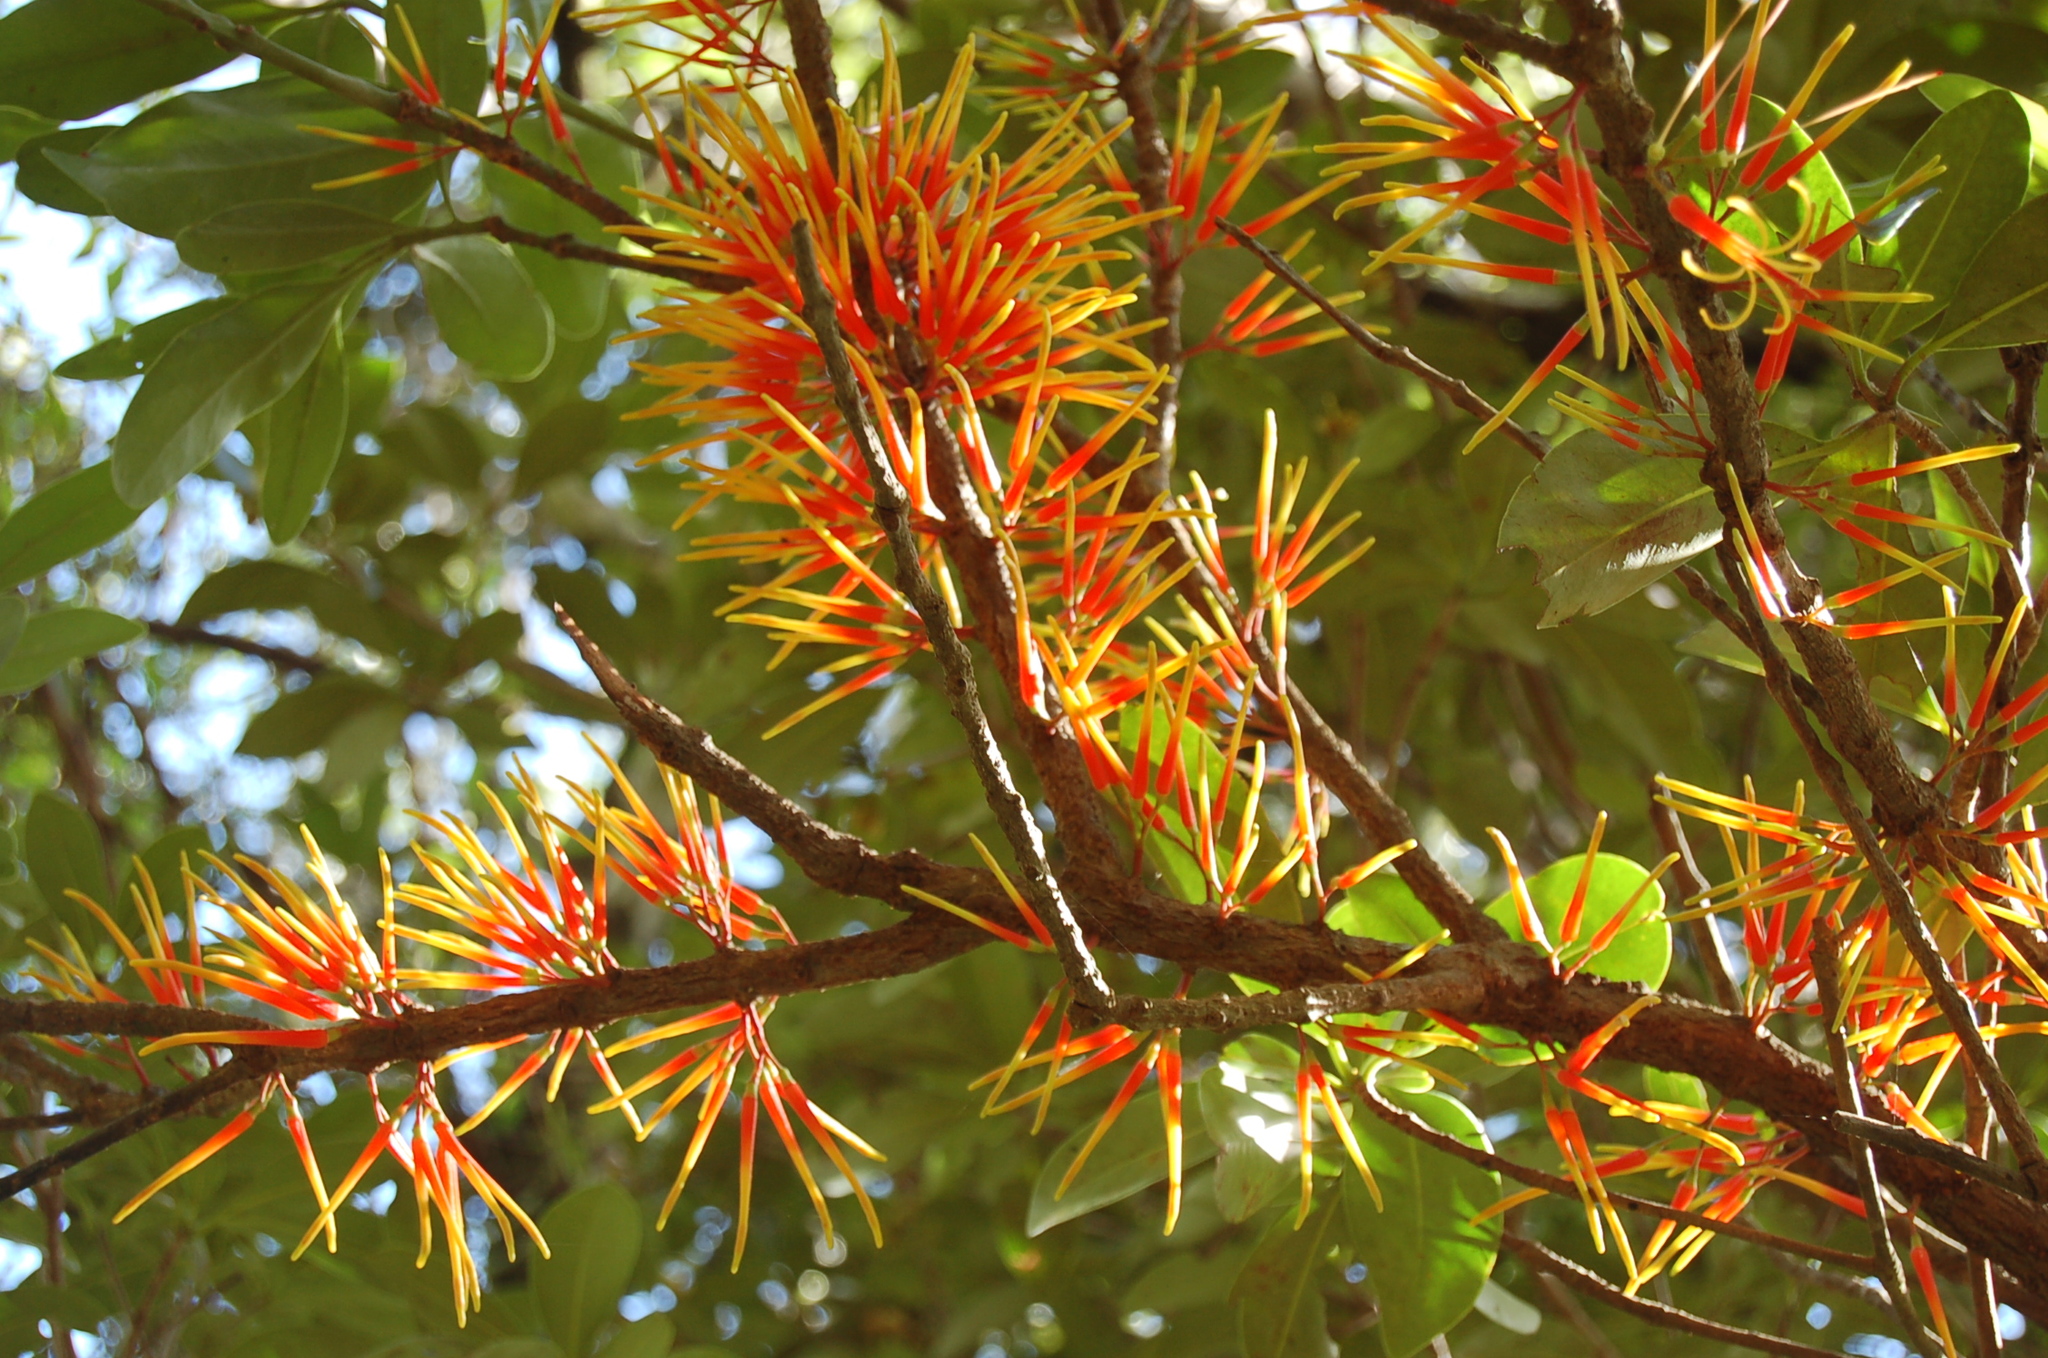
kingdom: Plantae
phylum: Tracheophyta
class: Magnoliopsida
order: Santalales
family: Loranthaceae
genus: Psittacanthus
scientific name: Psittacanthus ramiflorus
